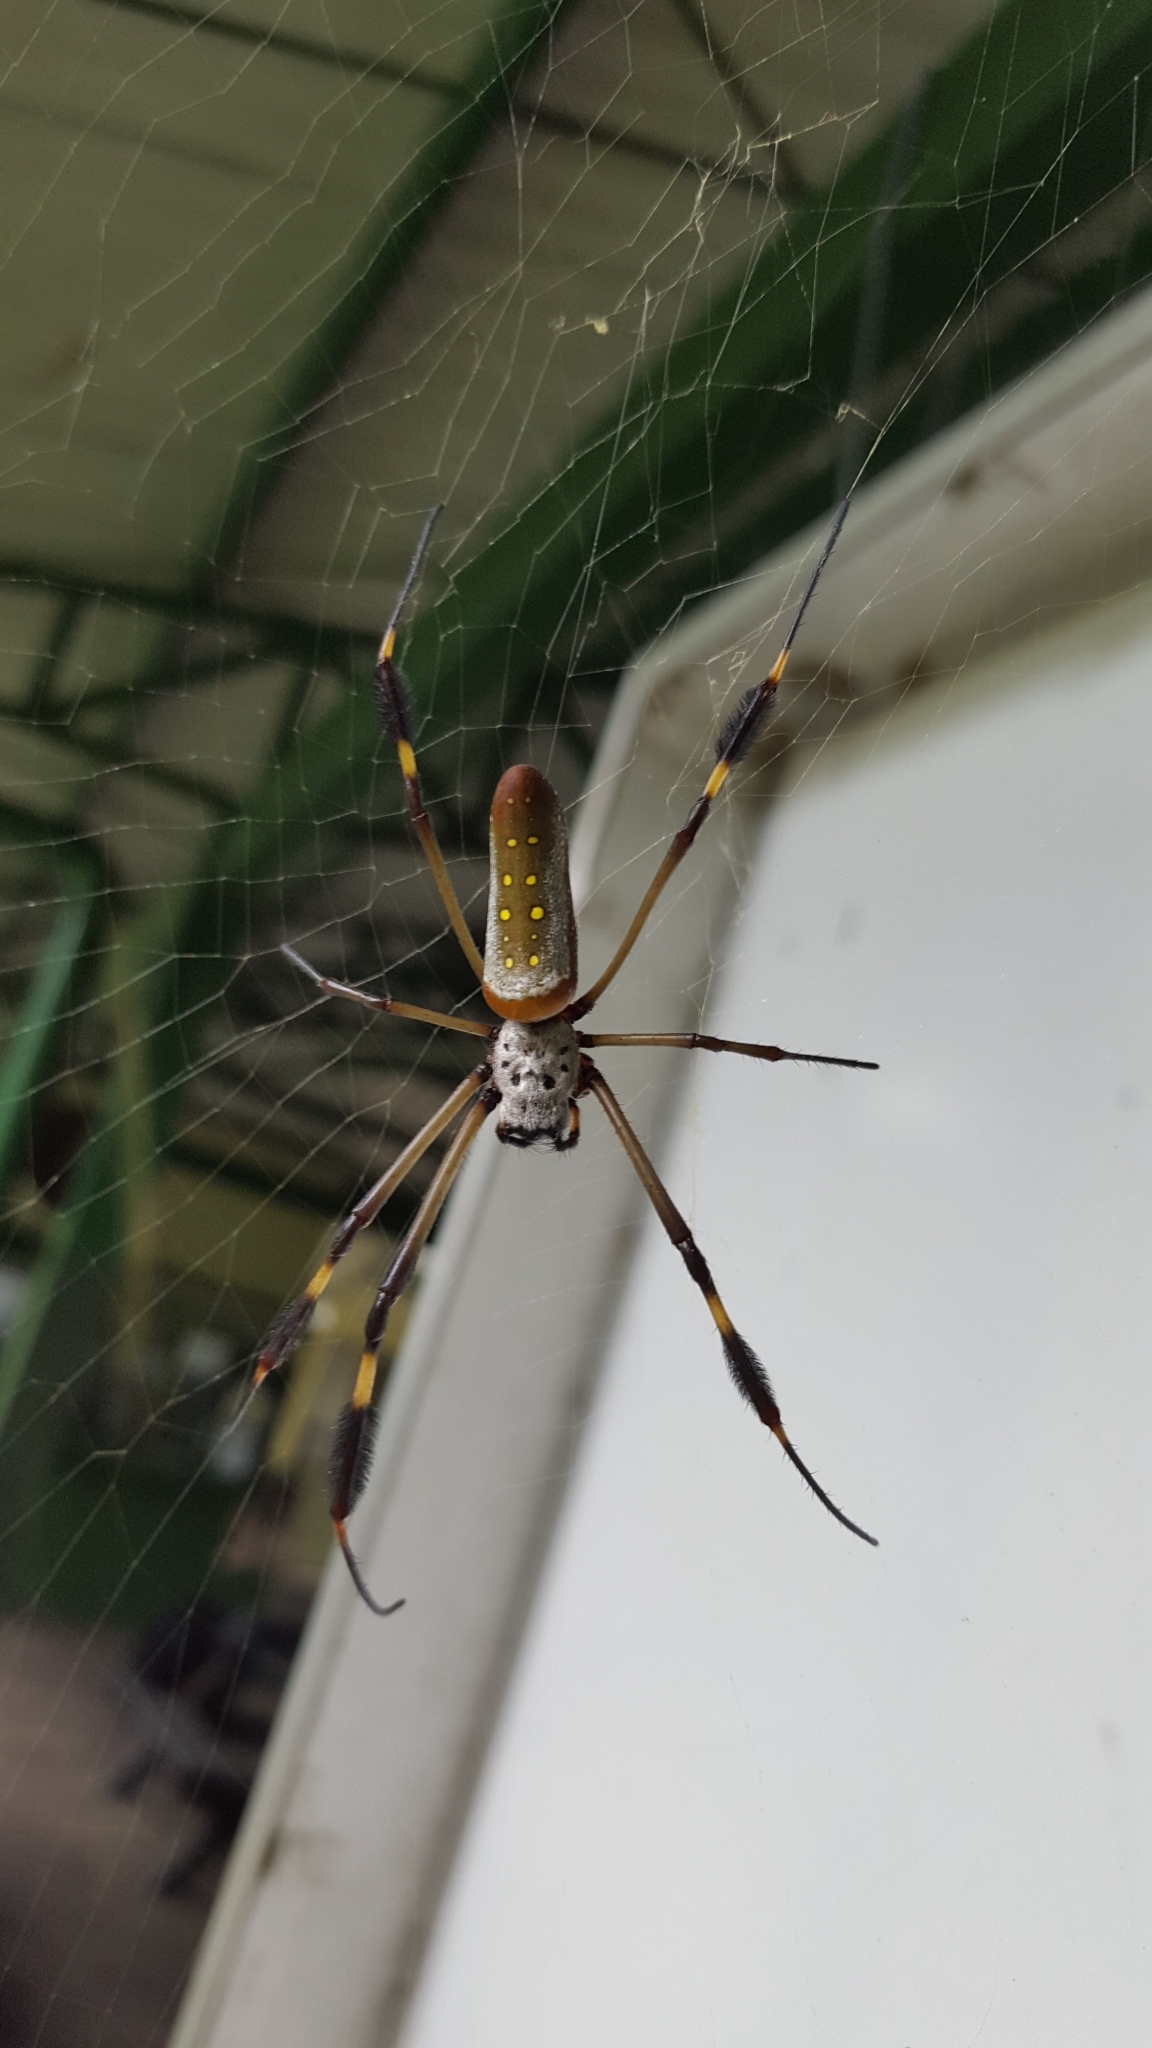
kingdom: Animalia
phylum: Arthropoda
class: Arachnida
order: Araneae
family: Araneidae
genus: Trichonephila
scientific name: Trichonephila clavipes
